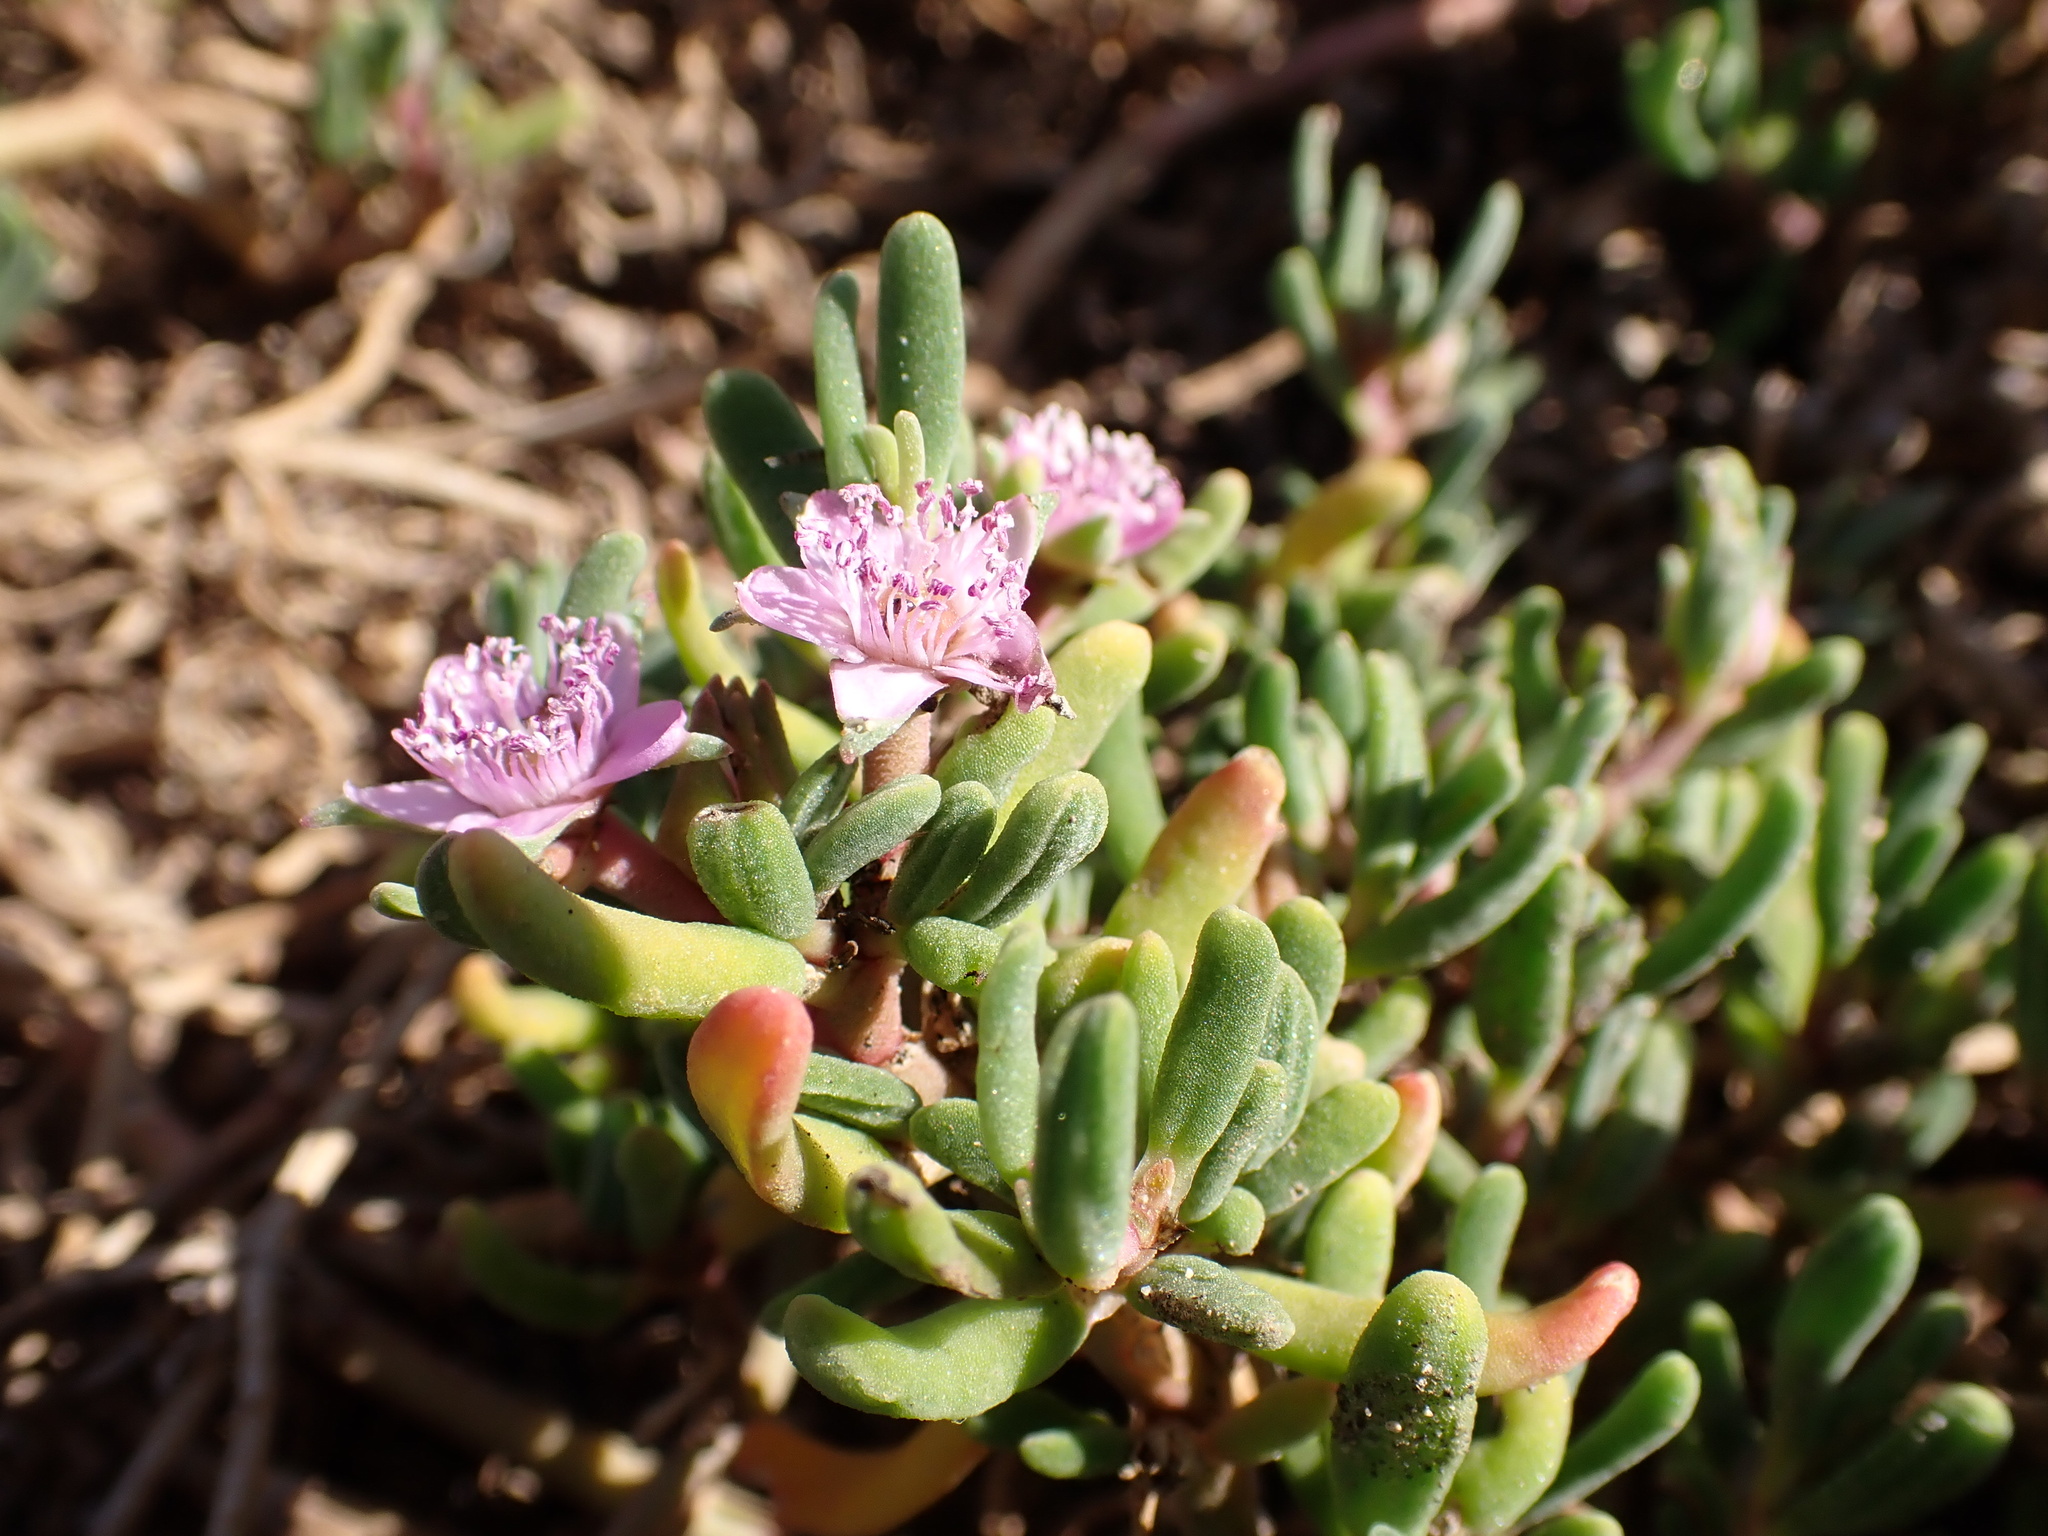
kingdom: Plantae
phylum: Tracheophyta
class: Magnoliopsida
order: Caryophyllales
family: Aizoaceae
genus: Sesuvium
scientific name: Sesuvium portulacastrum
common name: Sea-purslane
